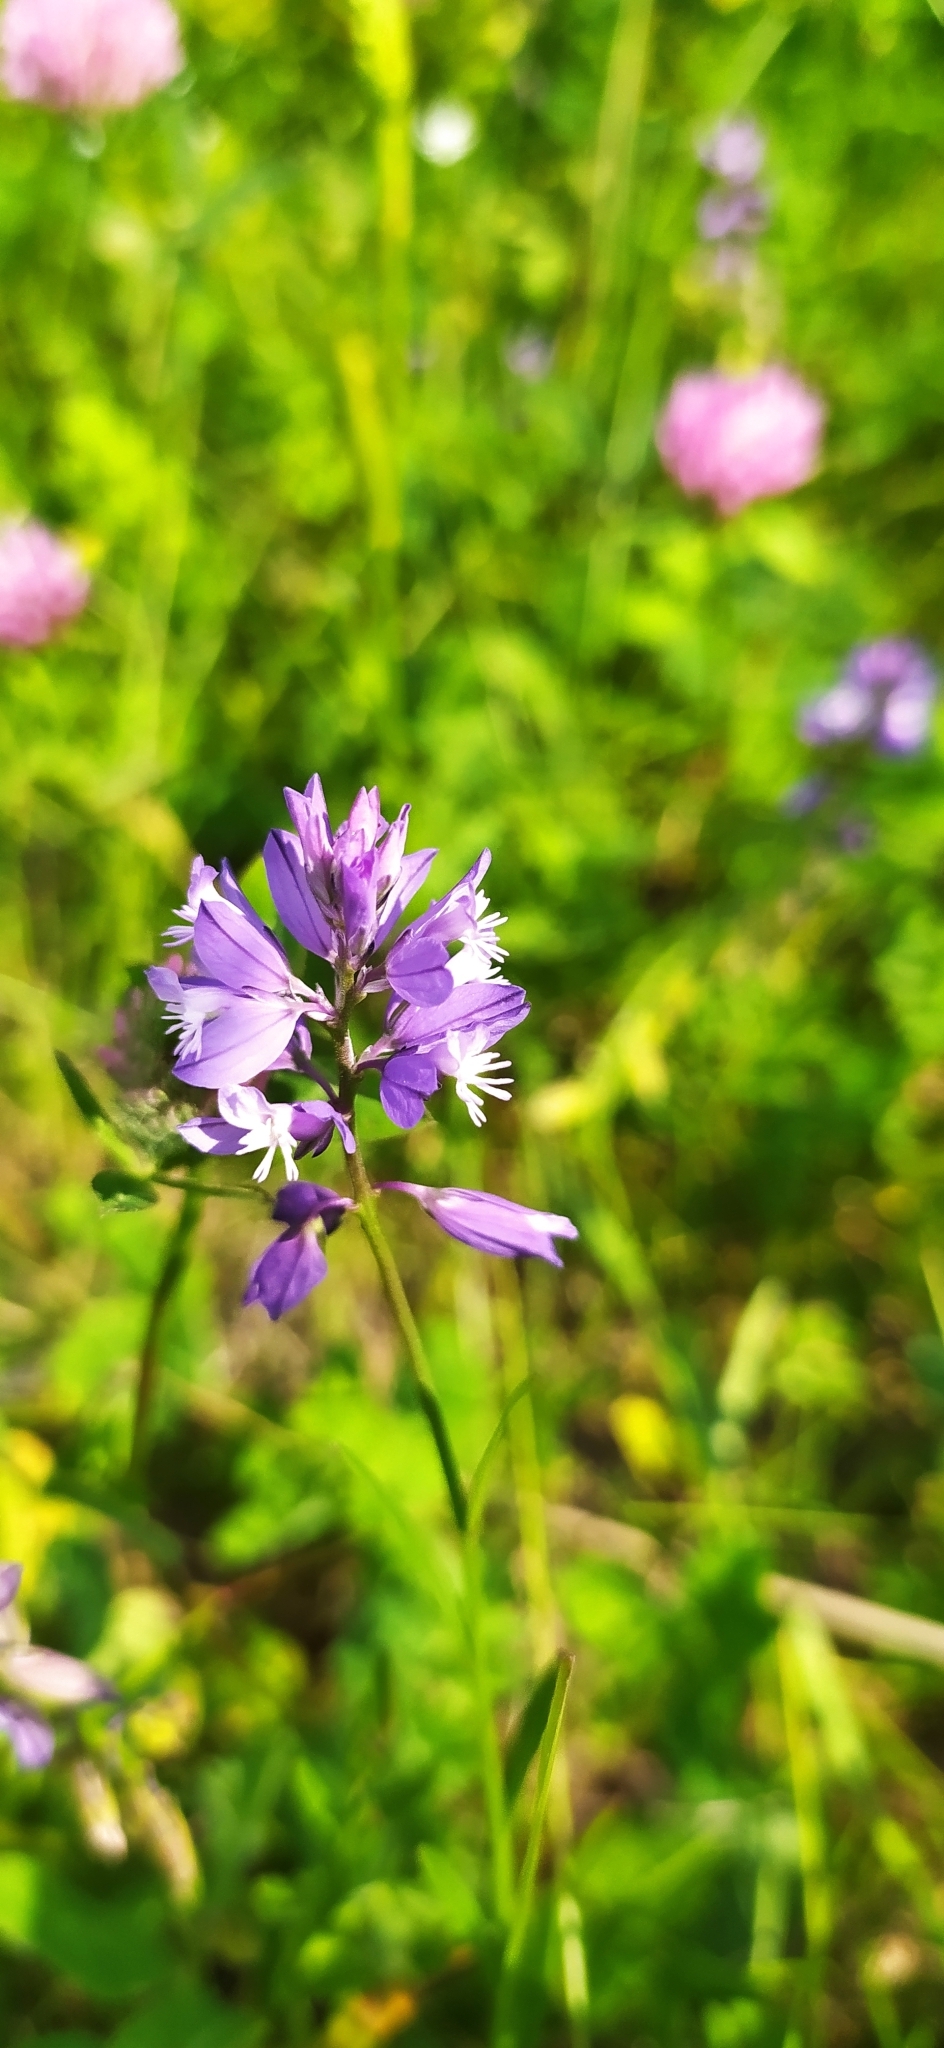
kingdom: Plantae
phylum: Tracheophyta
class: Magnoliopsida
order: Fabales
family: Polygalaceae
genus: Polygala
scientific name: Polygala comosa
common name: Tufted milkwort
